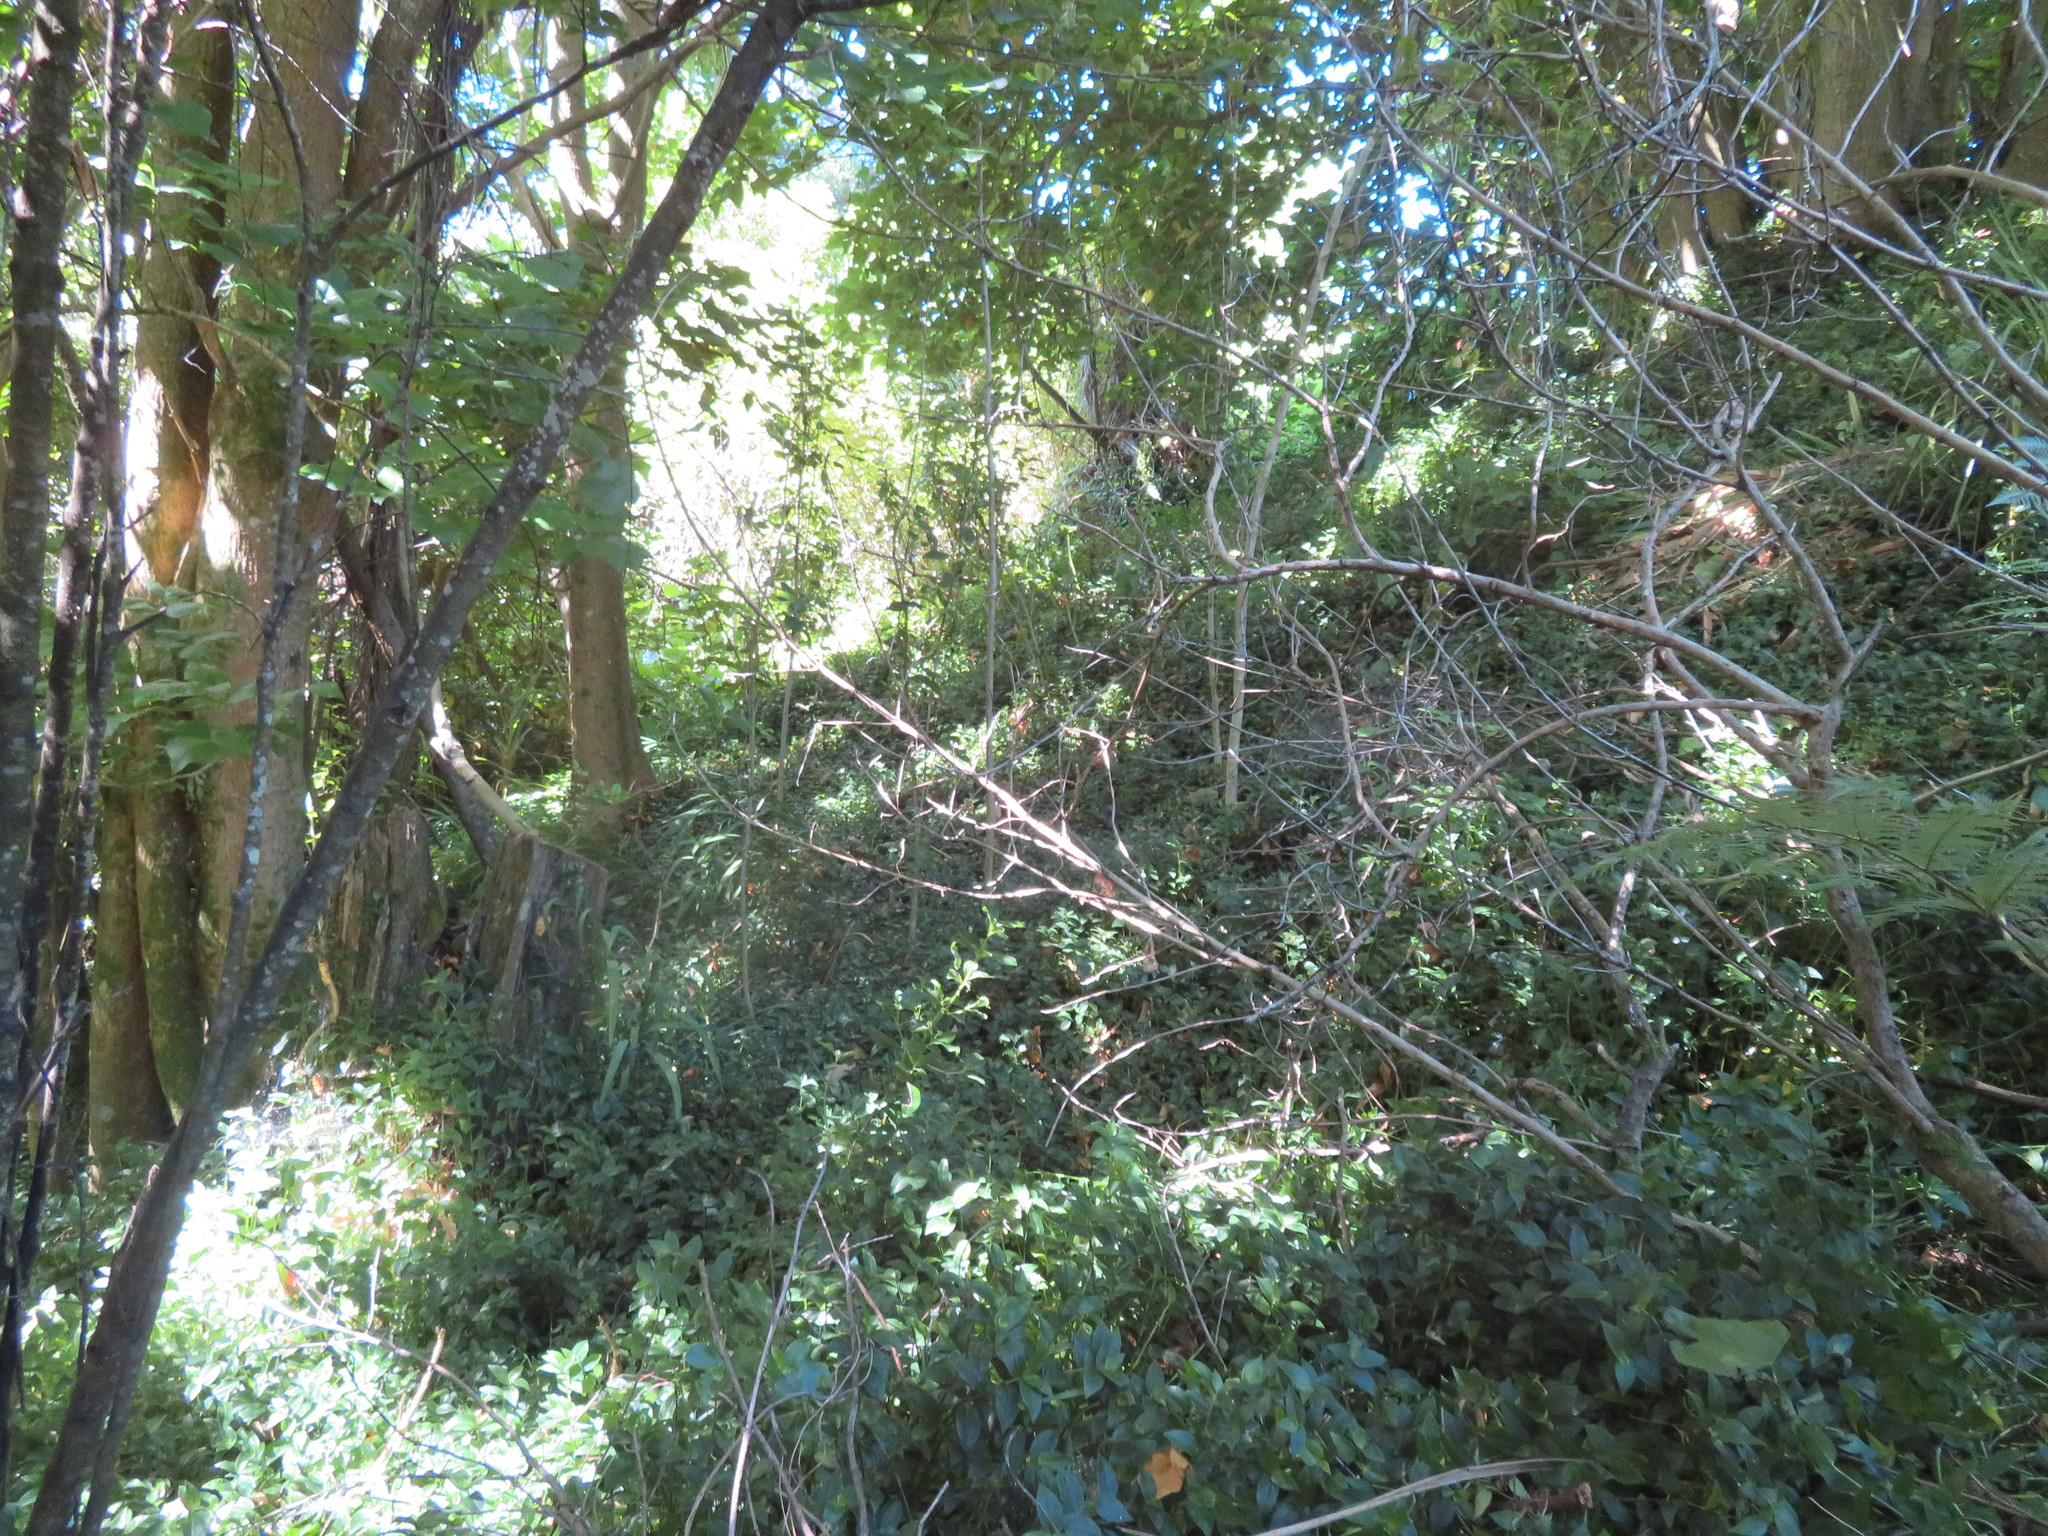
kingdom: Plantae
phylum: Tracheophyta
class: Liliopsida
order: Commelinales
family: Commelinaceae
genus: Tradescantia
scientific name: Tradescantia fluminensis
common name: Wandering-jew
